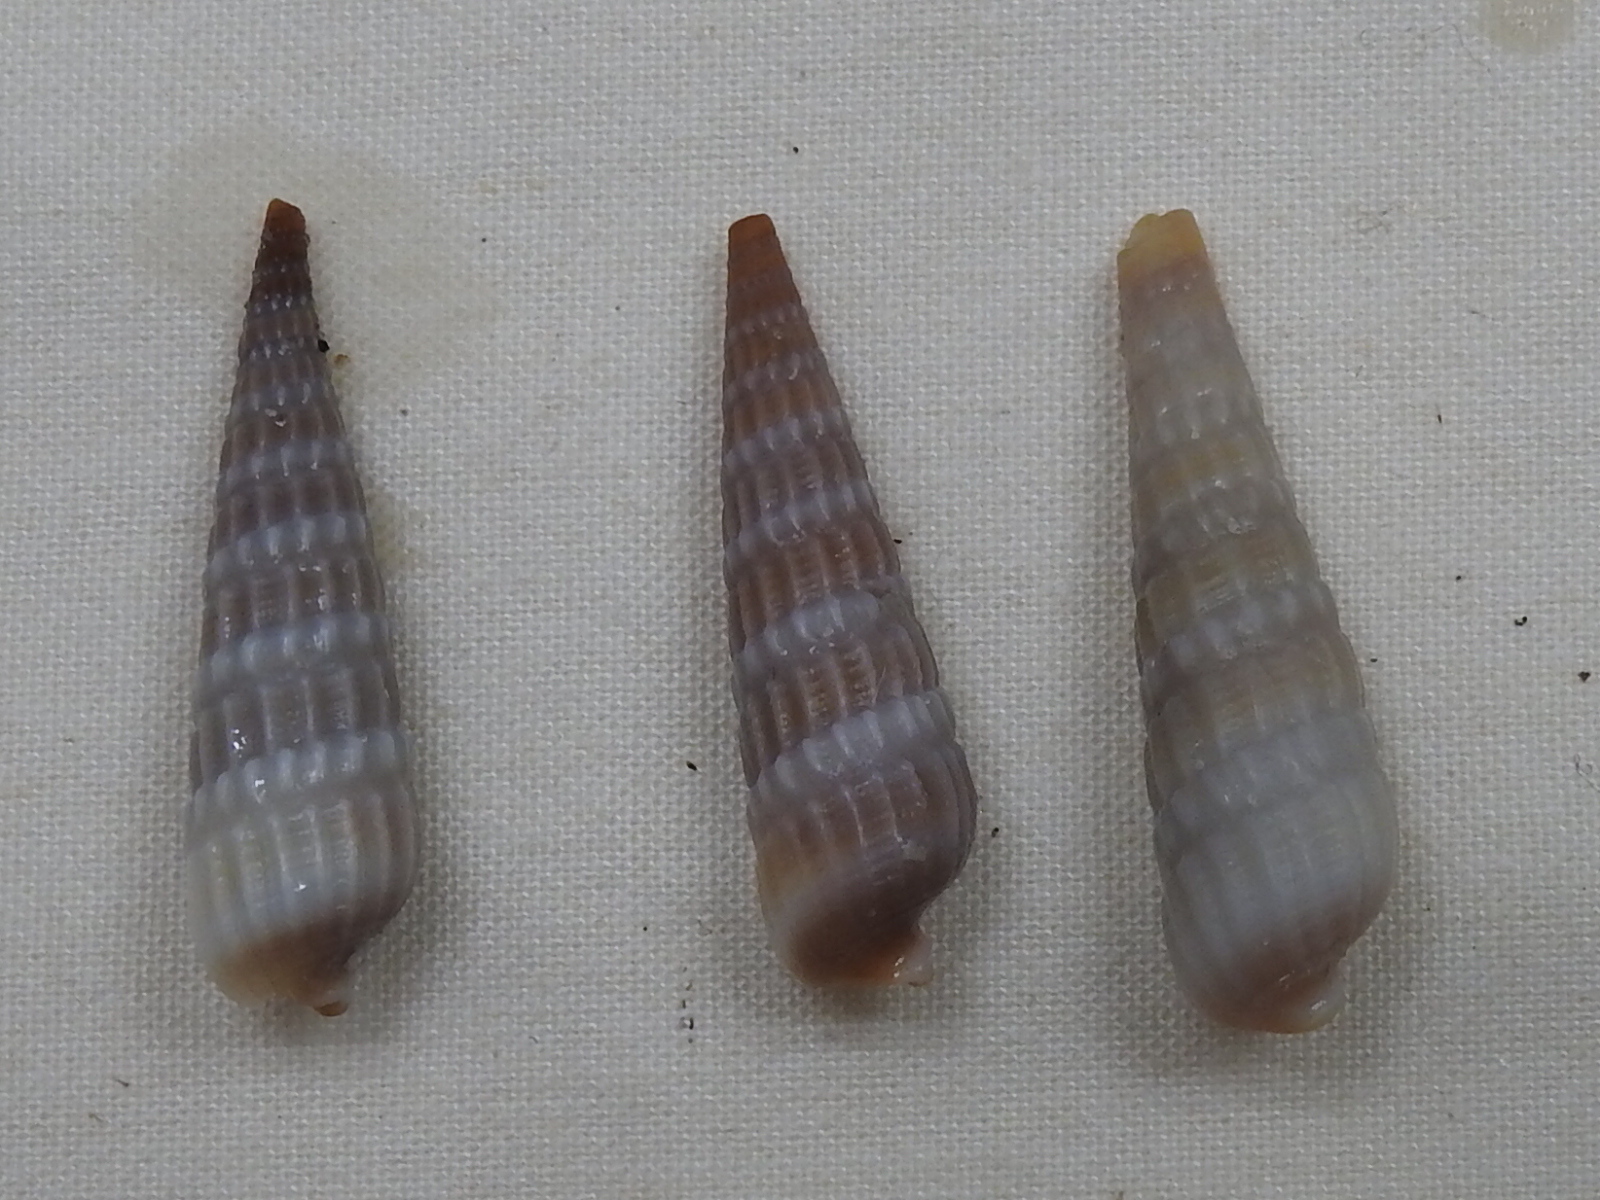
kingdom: Animalia
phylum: Mollusca
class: Gastropoda
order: Neogastropoda
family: Terebridae
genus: Neoterebra
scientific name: Neoterebra dislocata
